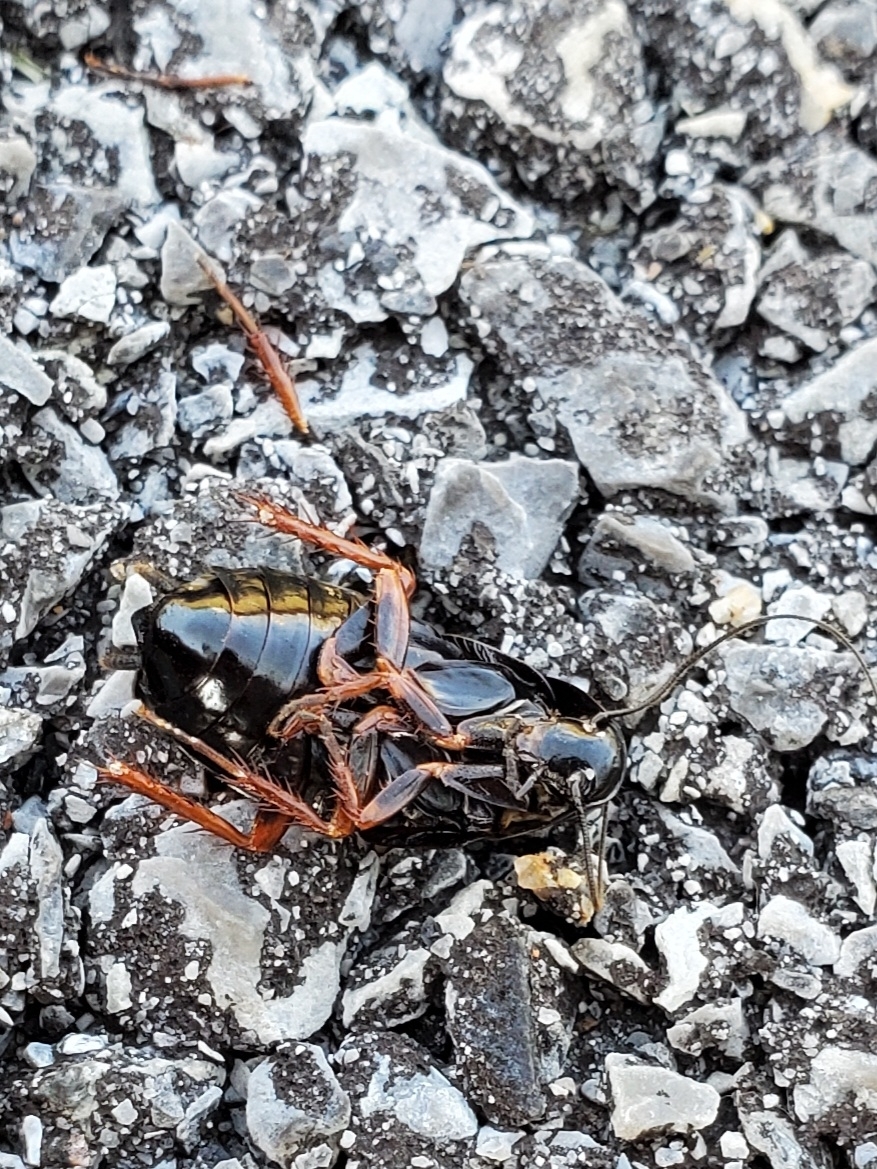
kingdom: Animalia
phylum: Arthropoda
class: Insecta
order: Blattodea
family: Ectobiidae
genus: Ischnoptera
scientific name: Ischnoptera deropeltiformis
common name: Dark wood cockroach
